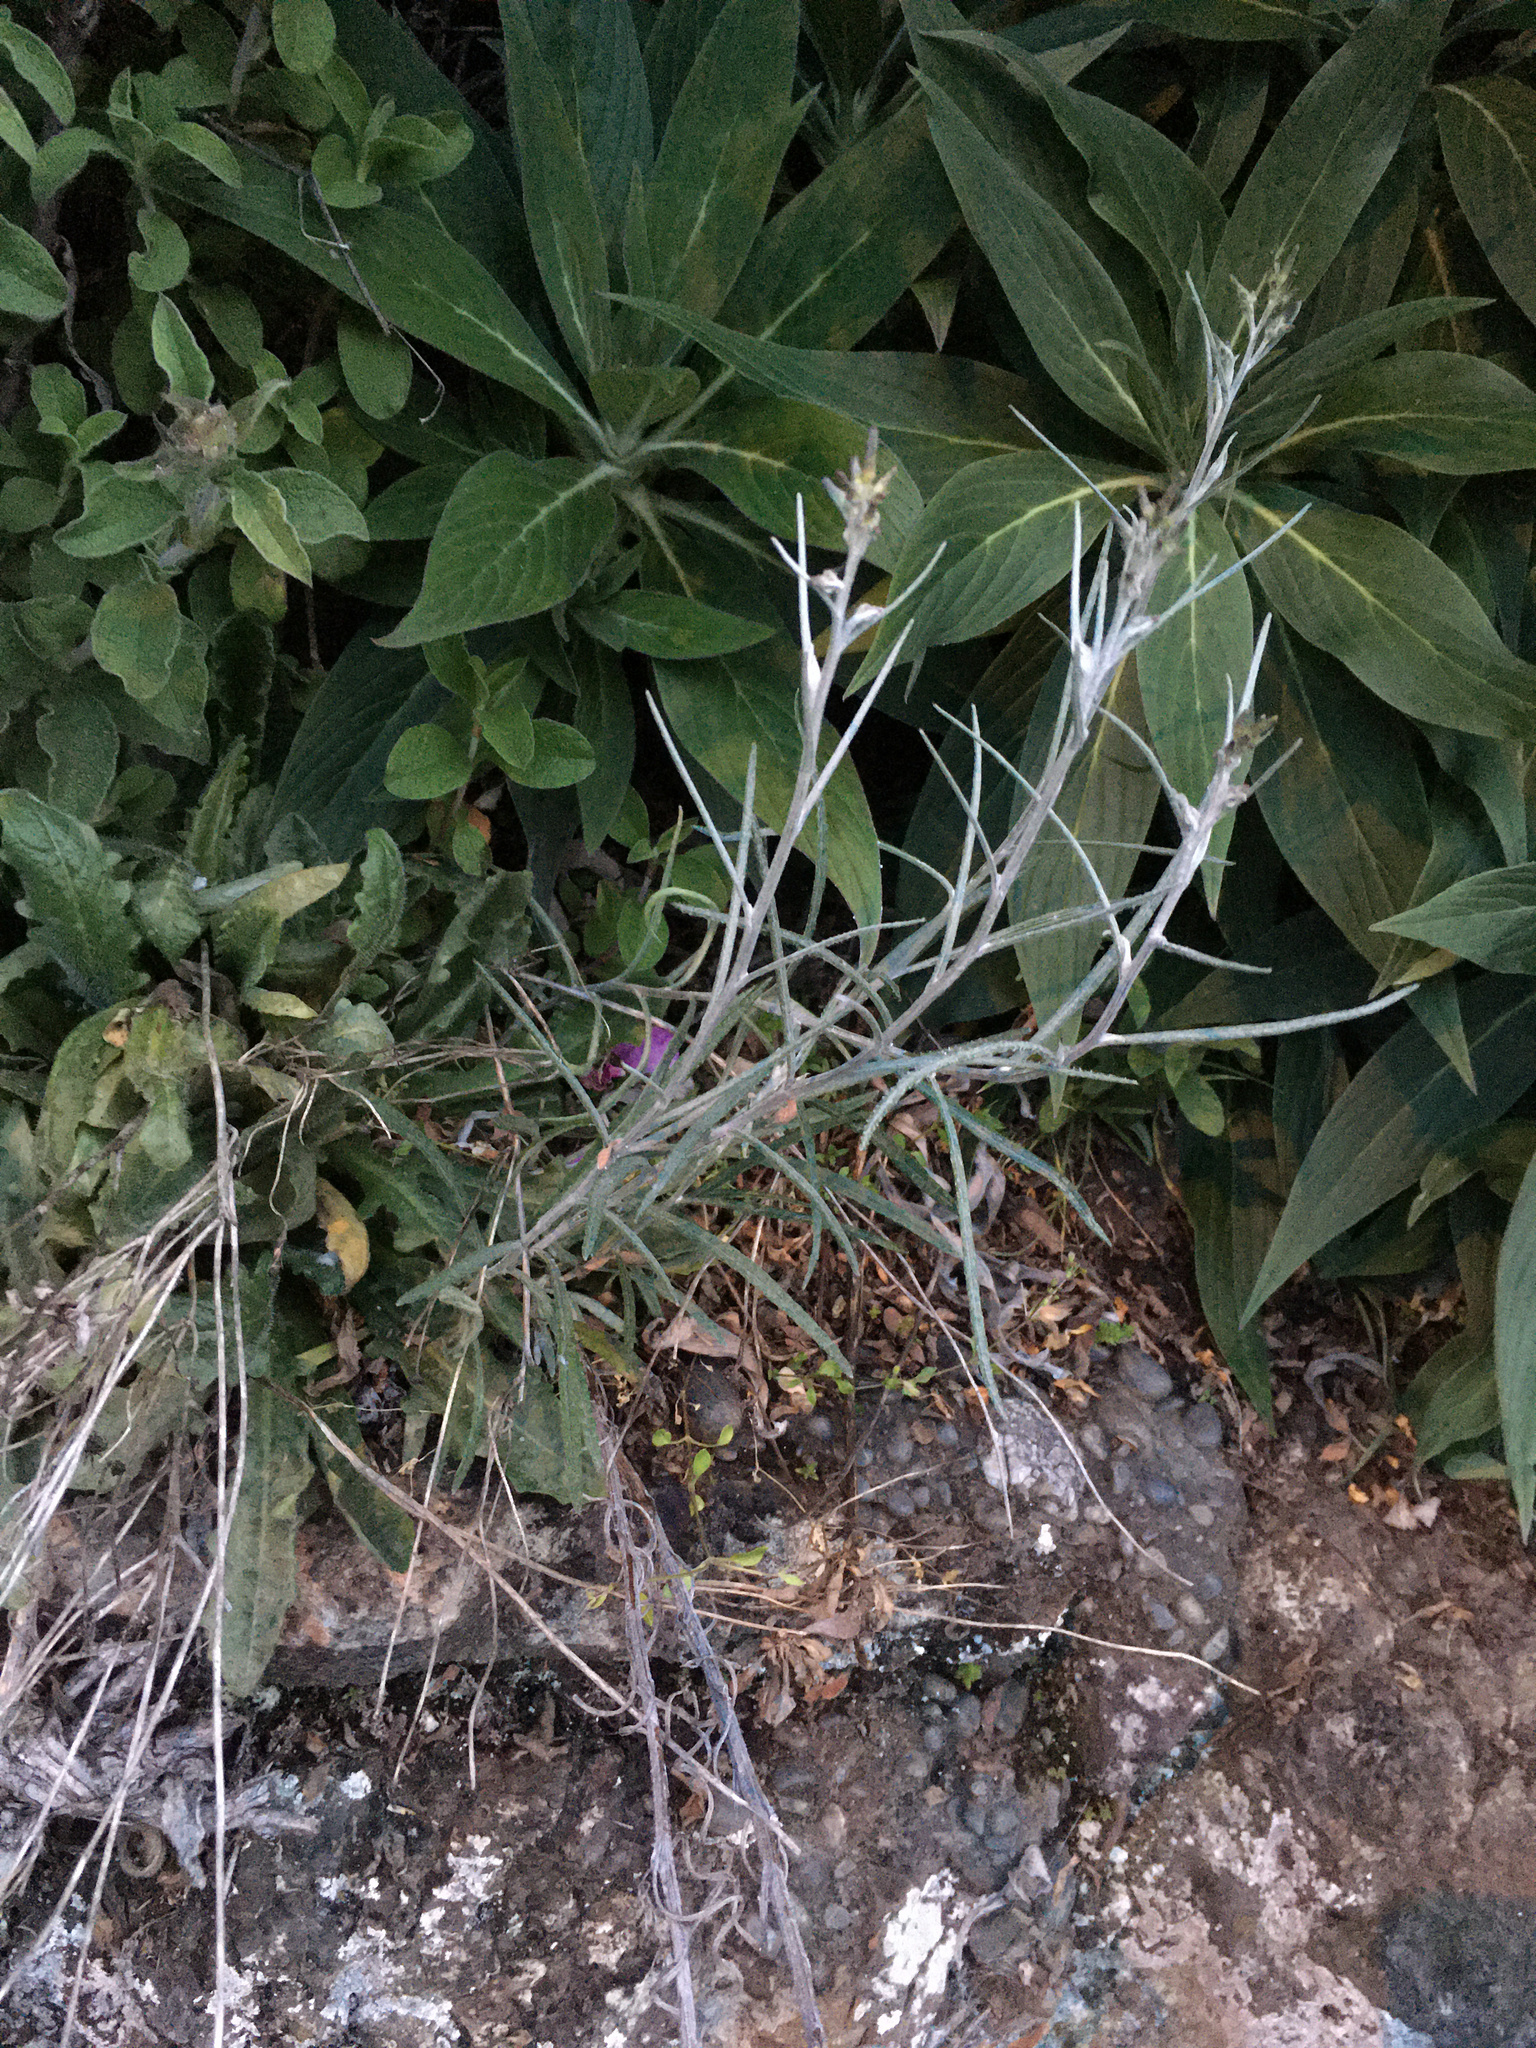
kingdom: Plantae
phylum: Tracheophyta
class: Magnoliopsida
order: Asterales
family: Asteraceae
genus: Senecio
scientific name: Senecio quadridentatus
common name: Cotton fireweed
